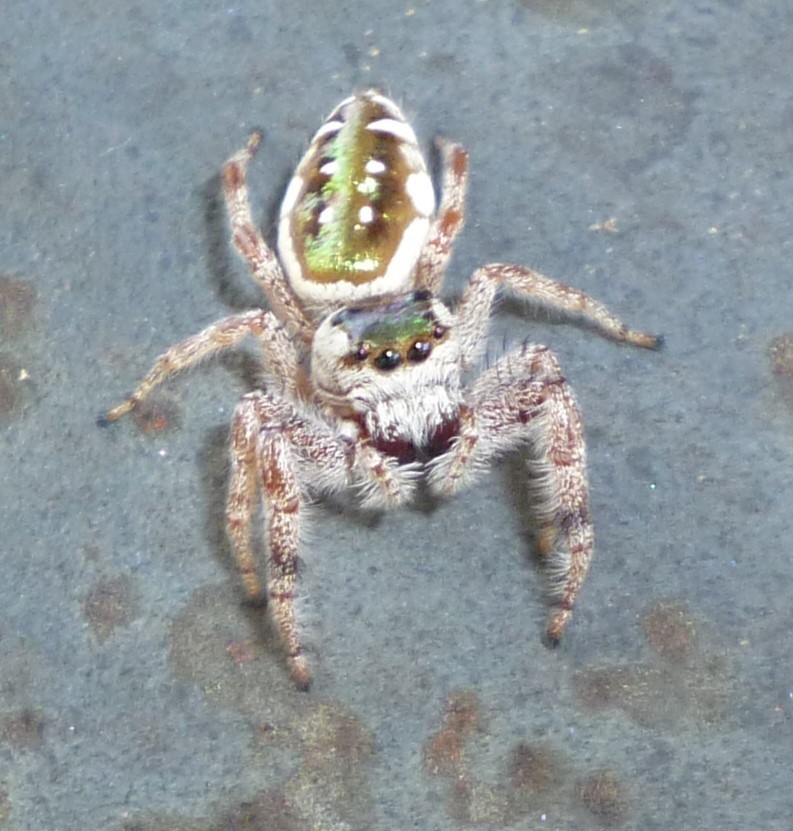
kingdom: Animalia
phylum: Arthropoda
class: Arachnida
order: Araneae
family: Salticidae
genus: Paraphidippus
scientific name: Paraphidippus aurantius
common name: Jumping spiders
